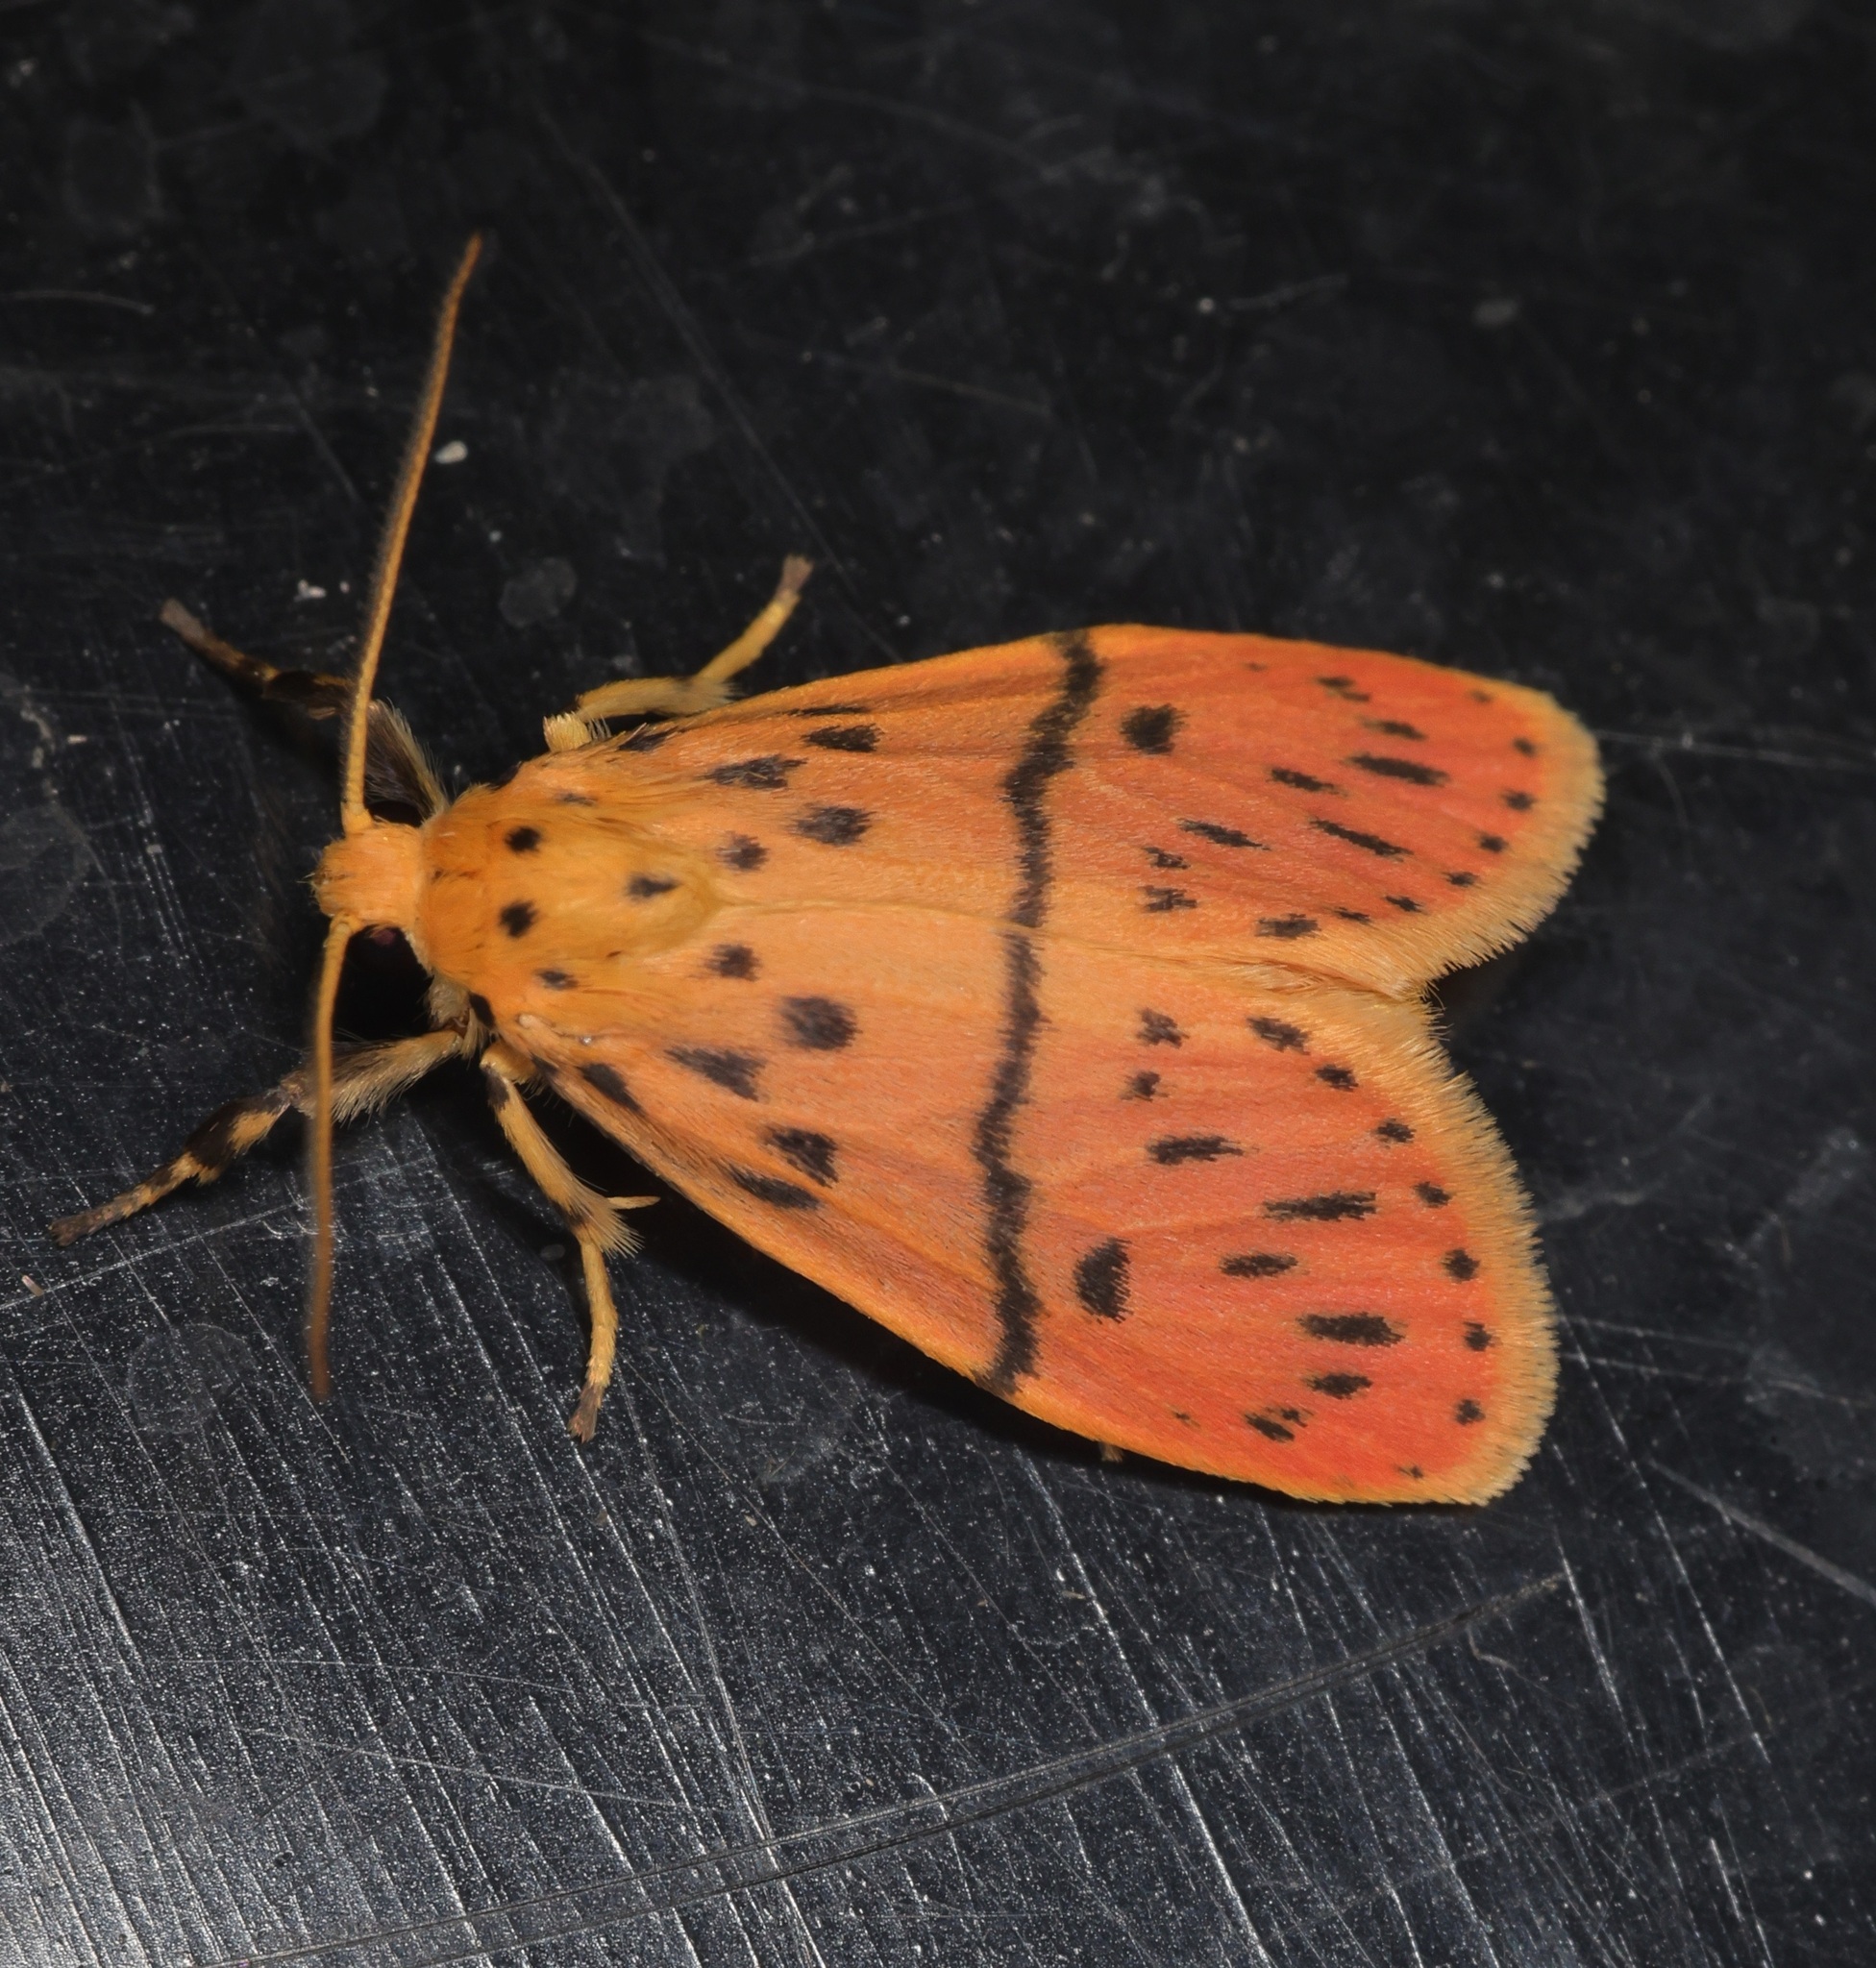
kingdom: Animalia
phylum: Arthropoda
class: Insecta
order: Lepidoptera
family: Erebidae
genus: Miltochrista
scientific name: Miltochrista acteola
